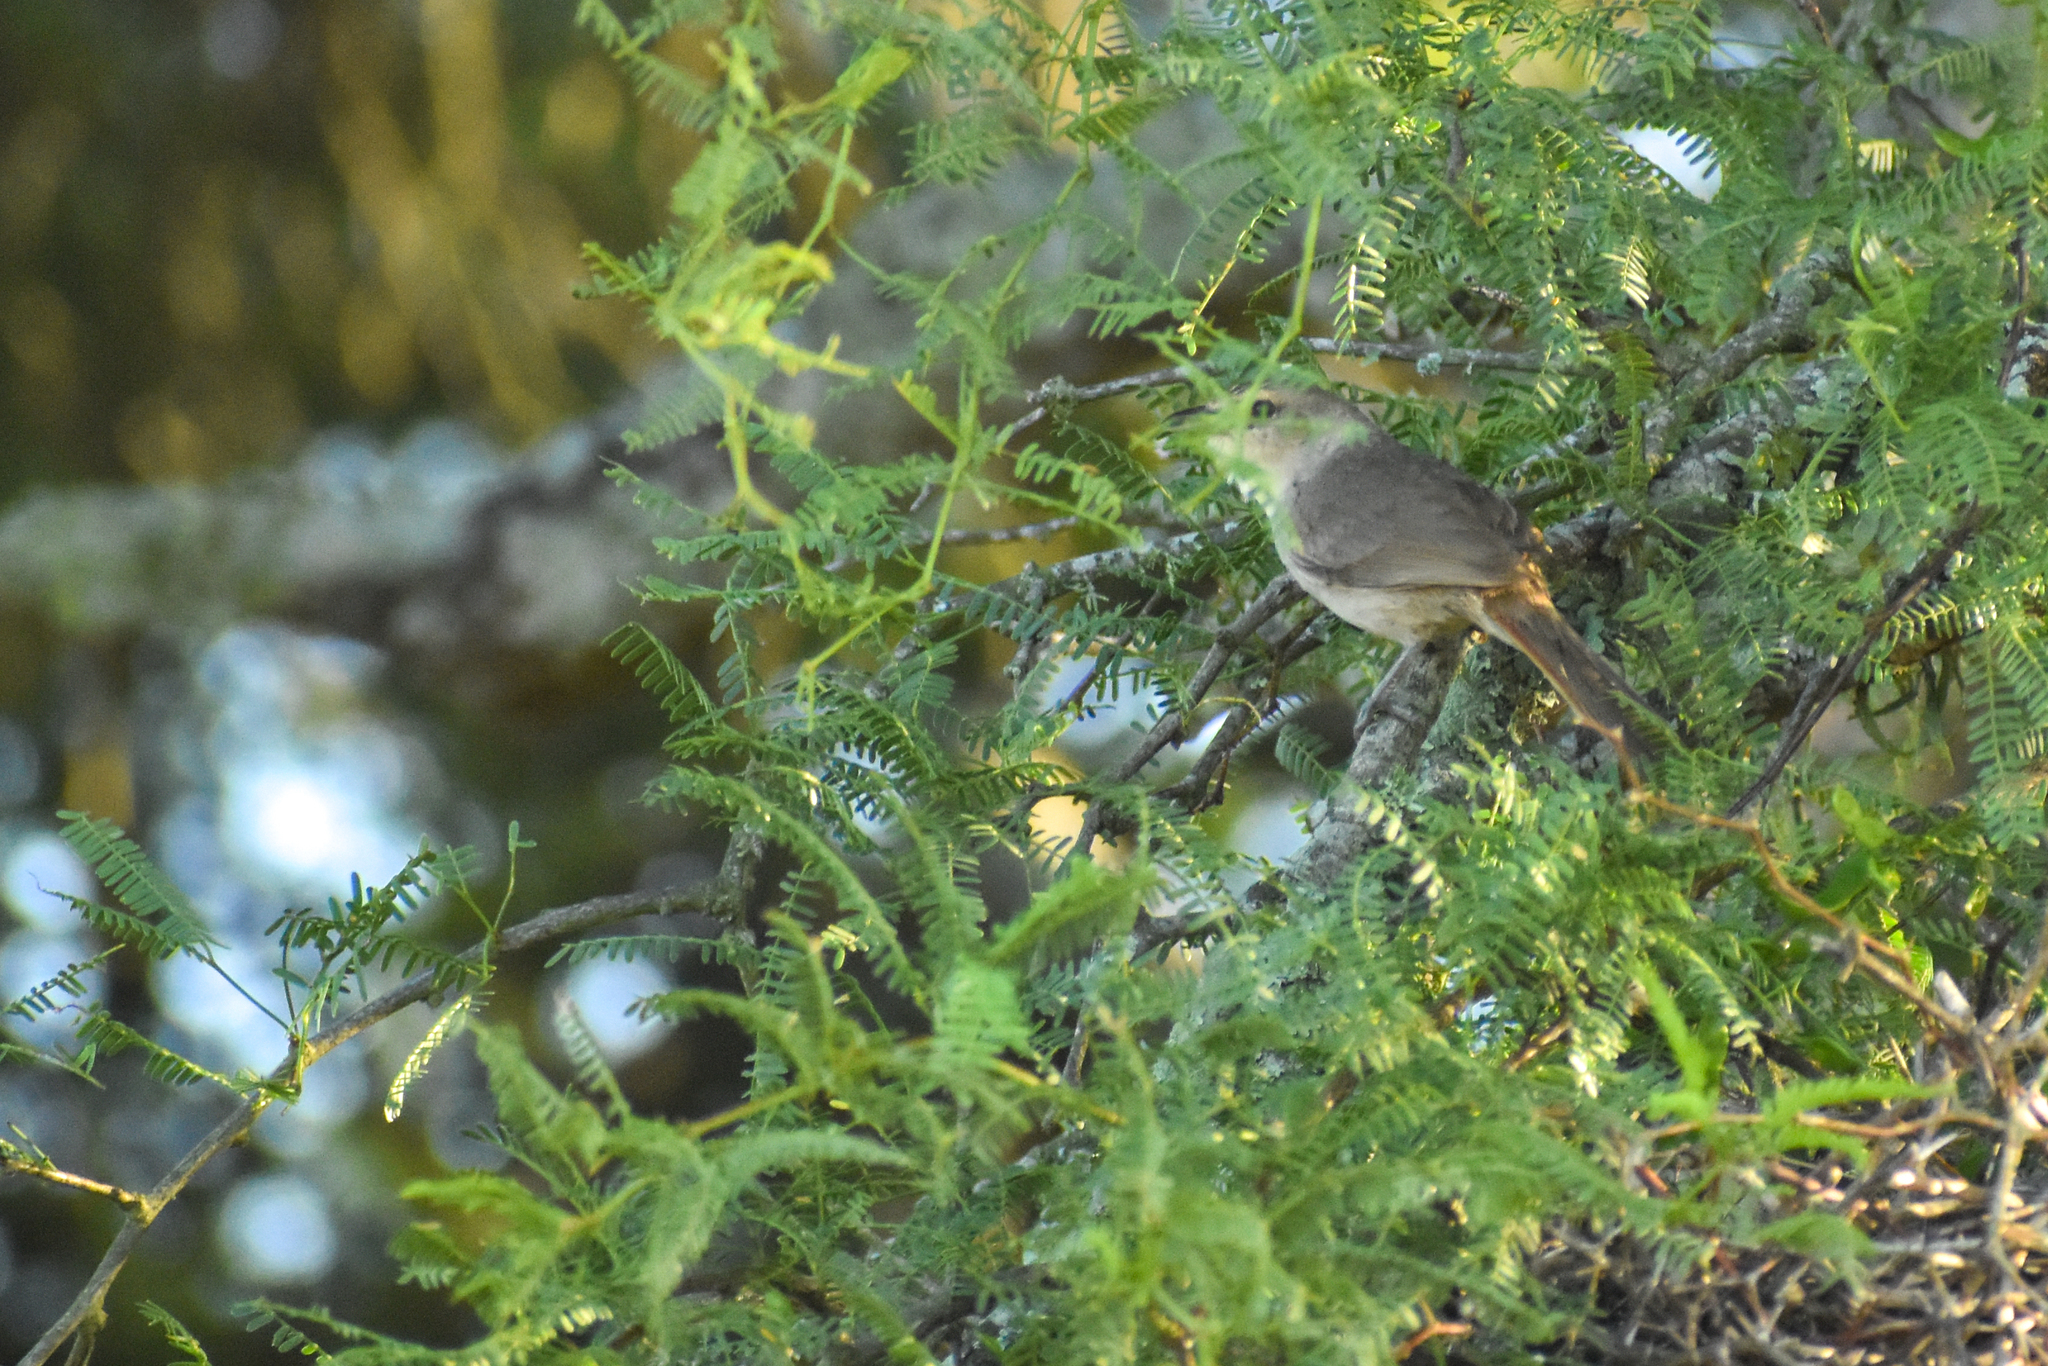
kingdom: Animalia
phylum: Chordata
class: Aves
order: Passeriformes
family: Furnariidae
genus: Phacellodomus
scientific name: Phacellodomus sibilatrix
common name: Little thornbird
